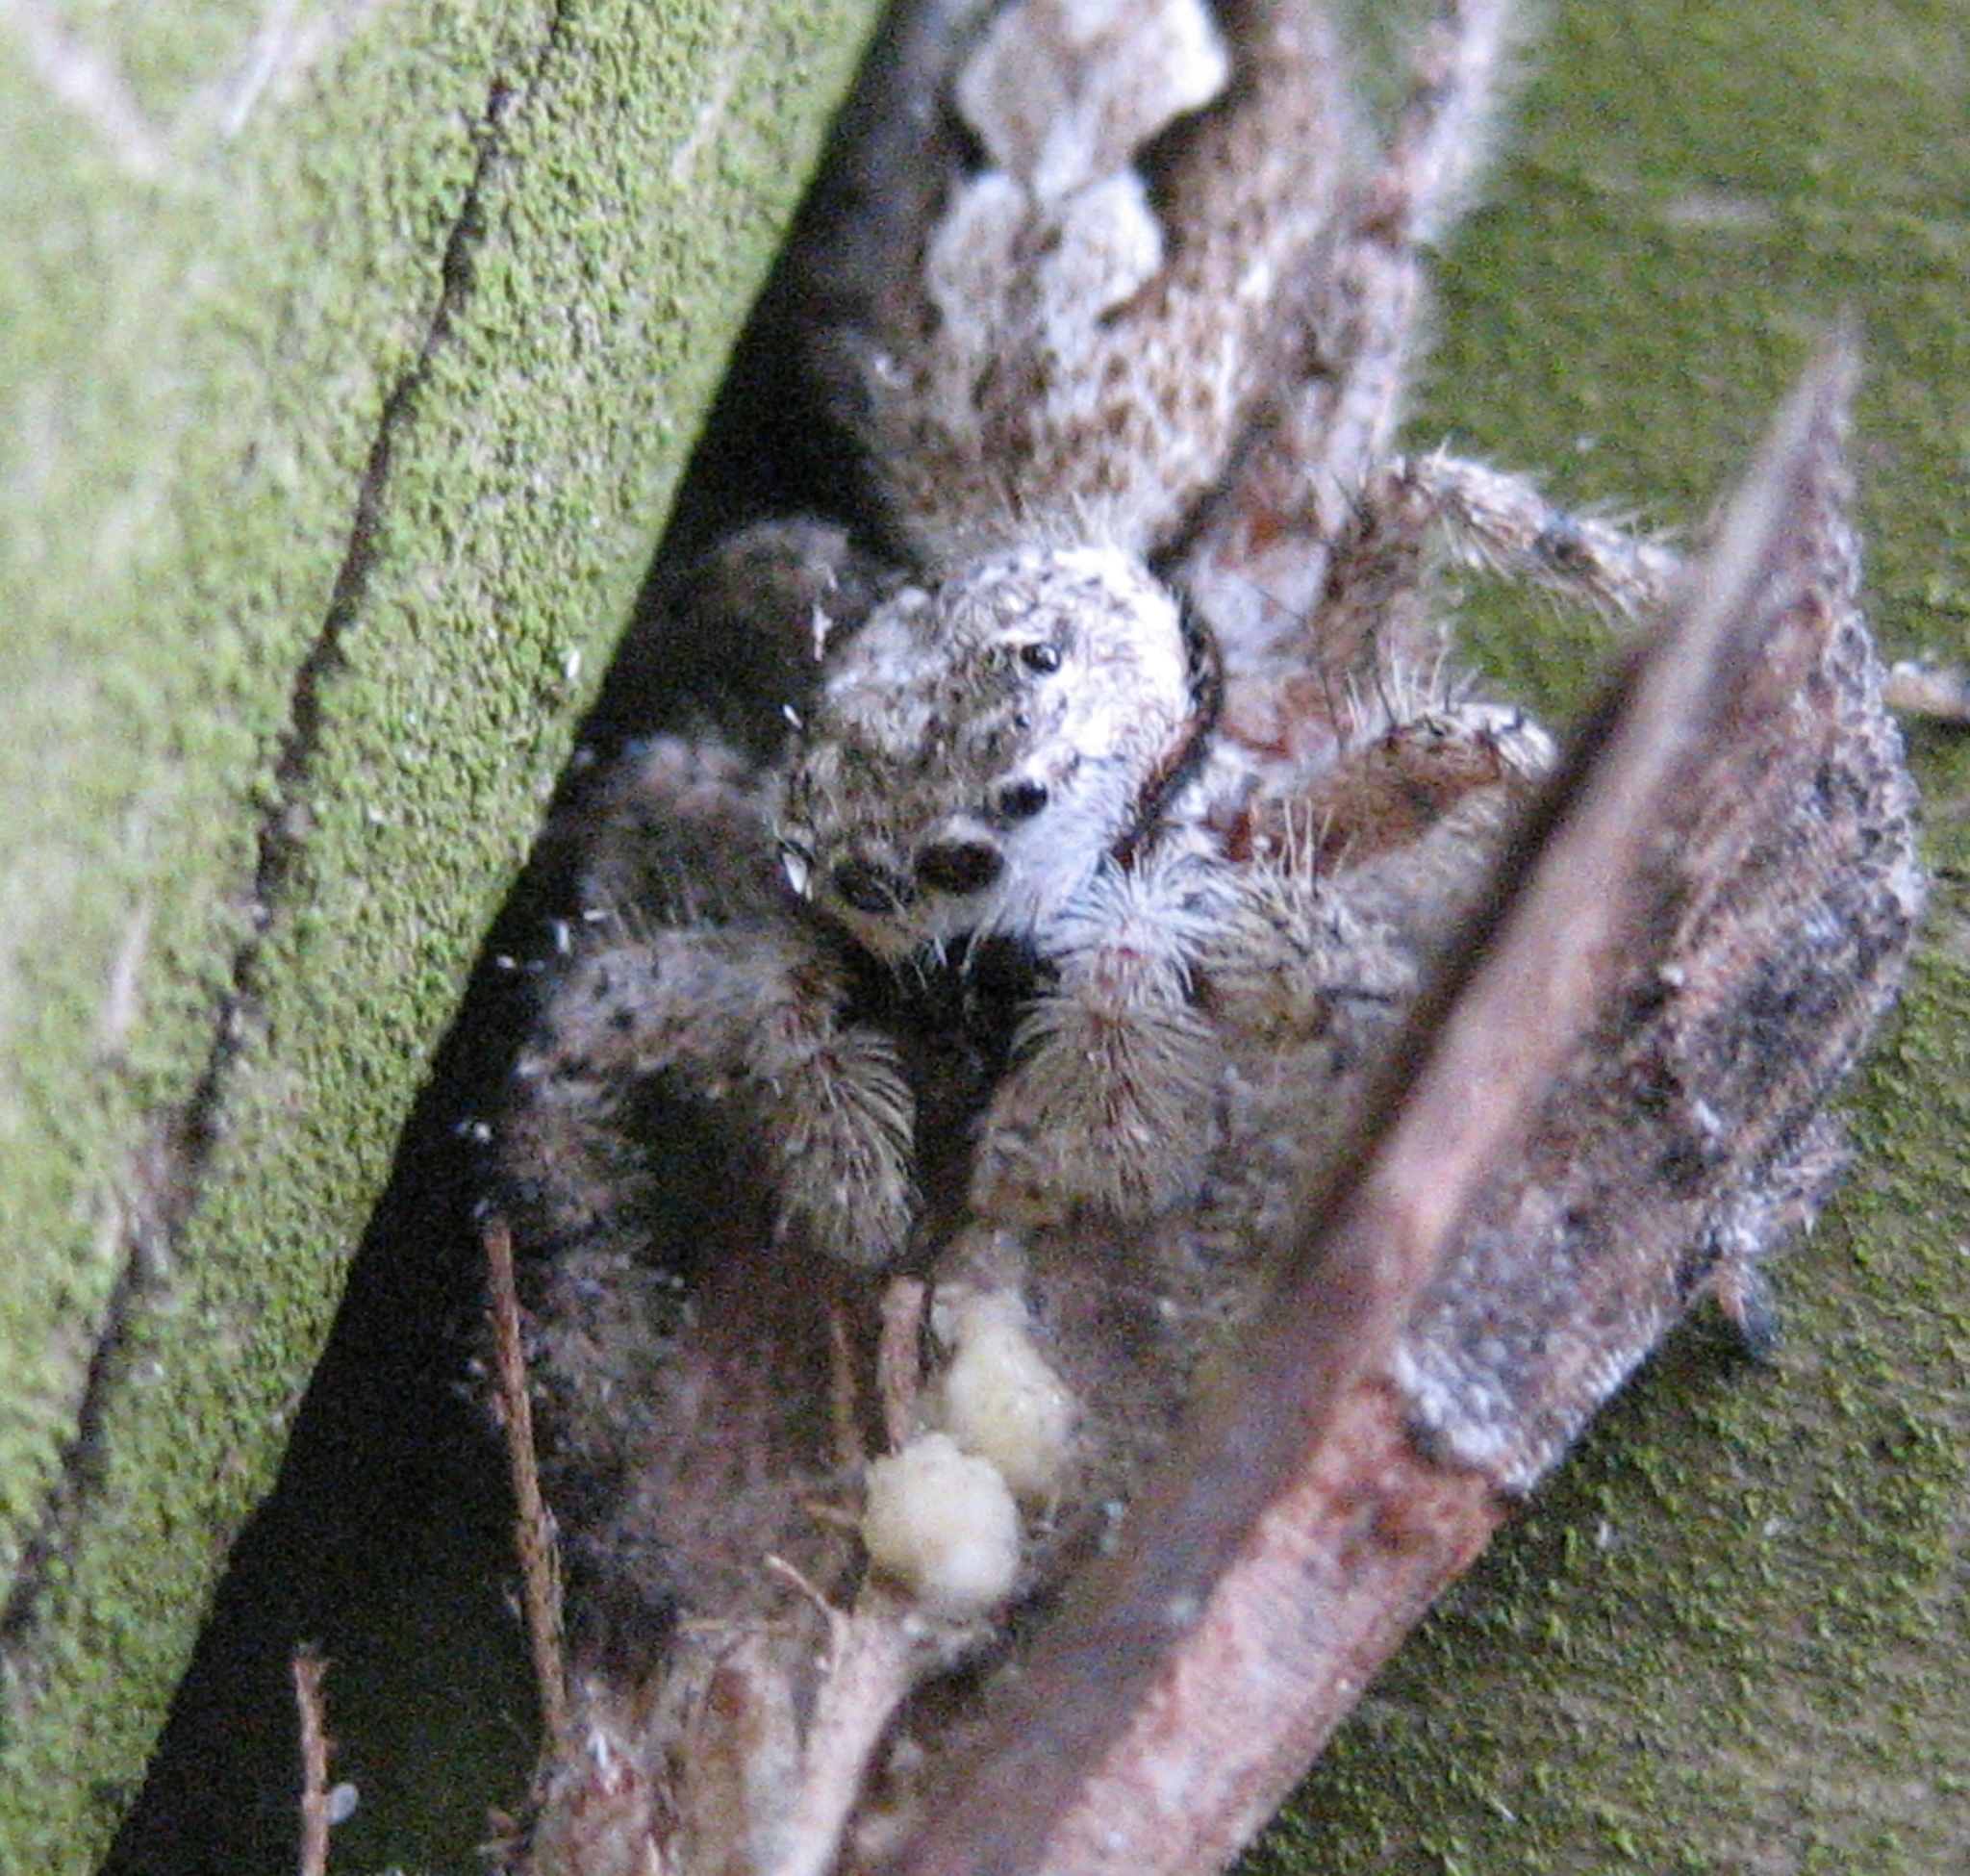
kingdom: Animalia
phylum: Arthropoda
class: Arachnida
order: Araneae
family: Salticidae
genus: Platycryptus
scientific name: Platycryptus undatus
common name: Tan jumping spider
